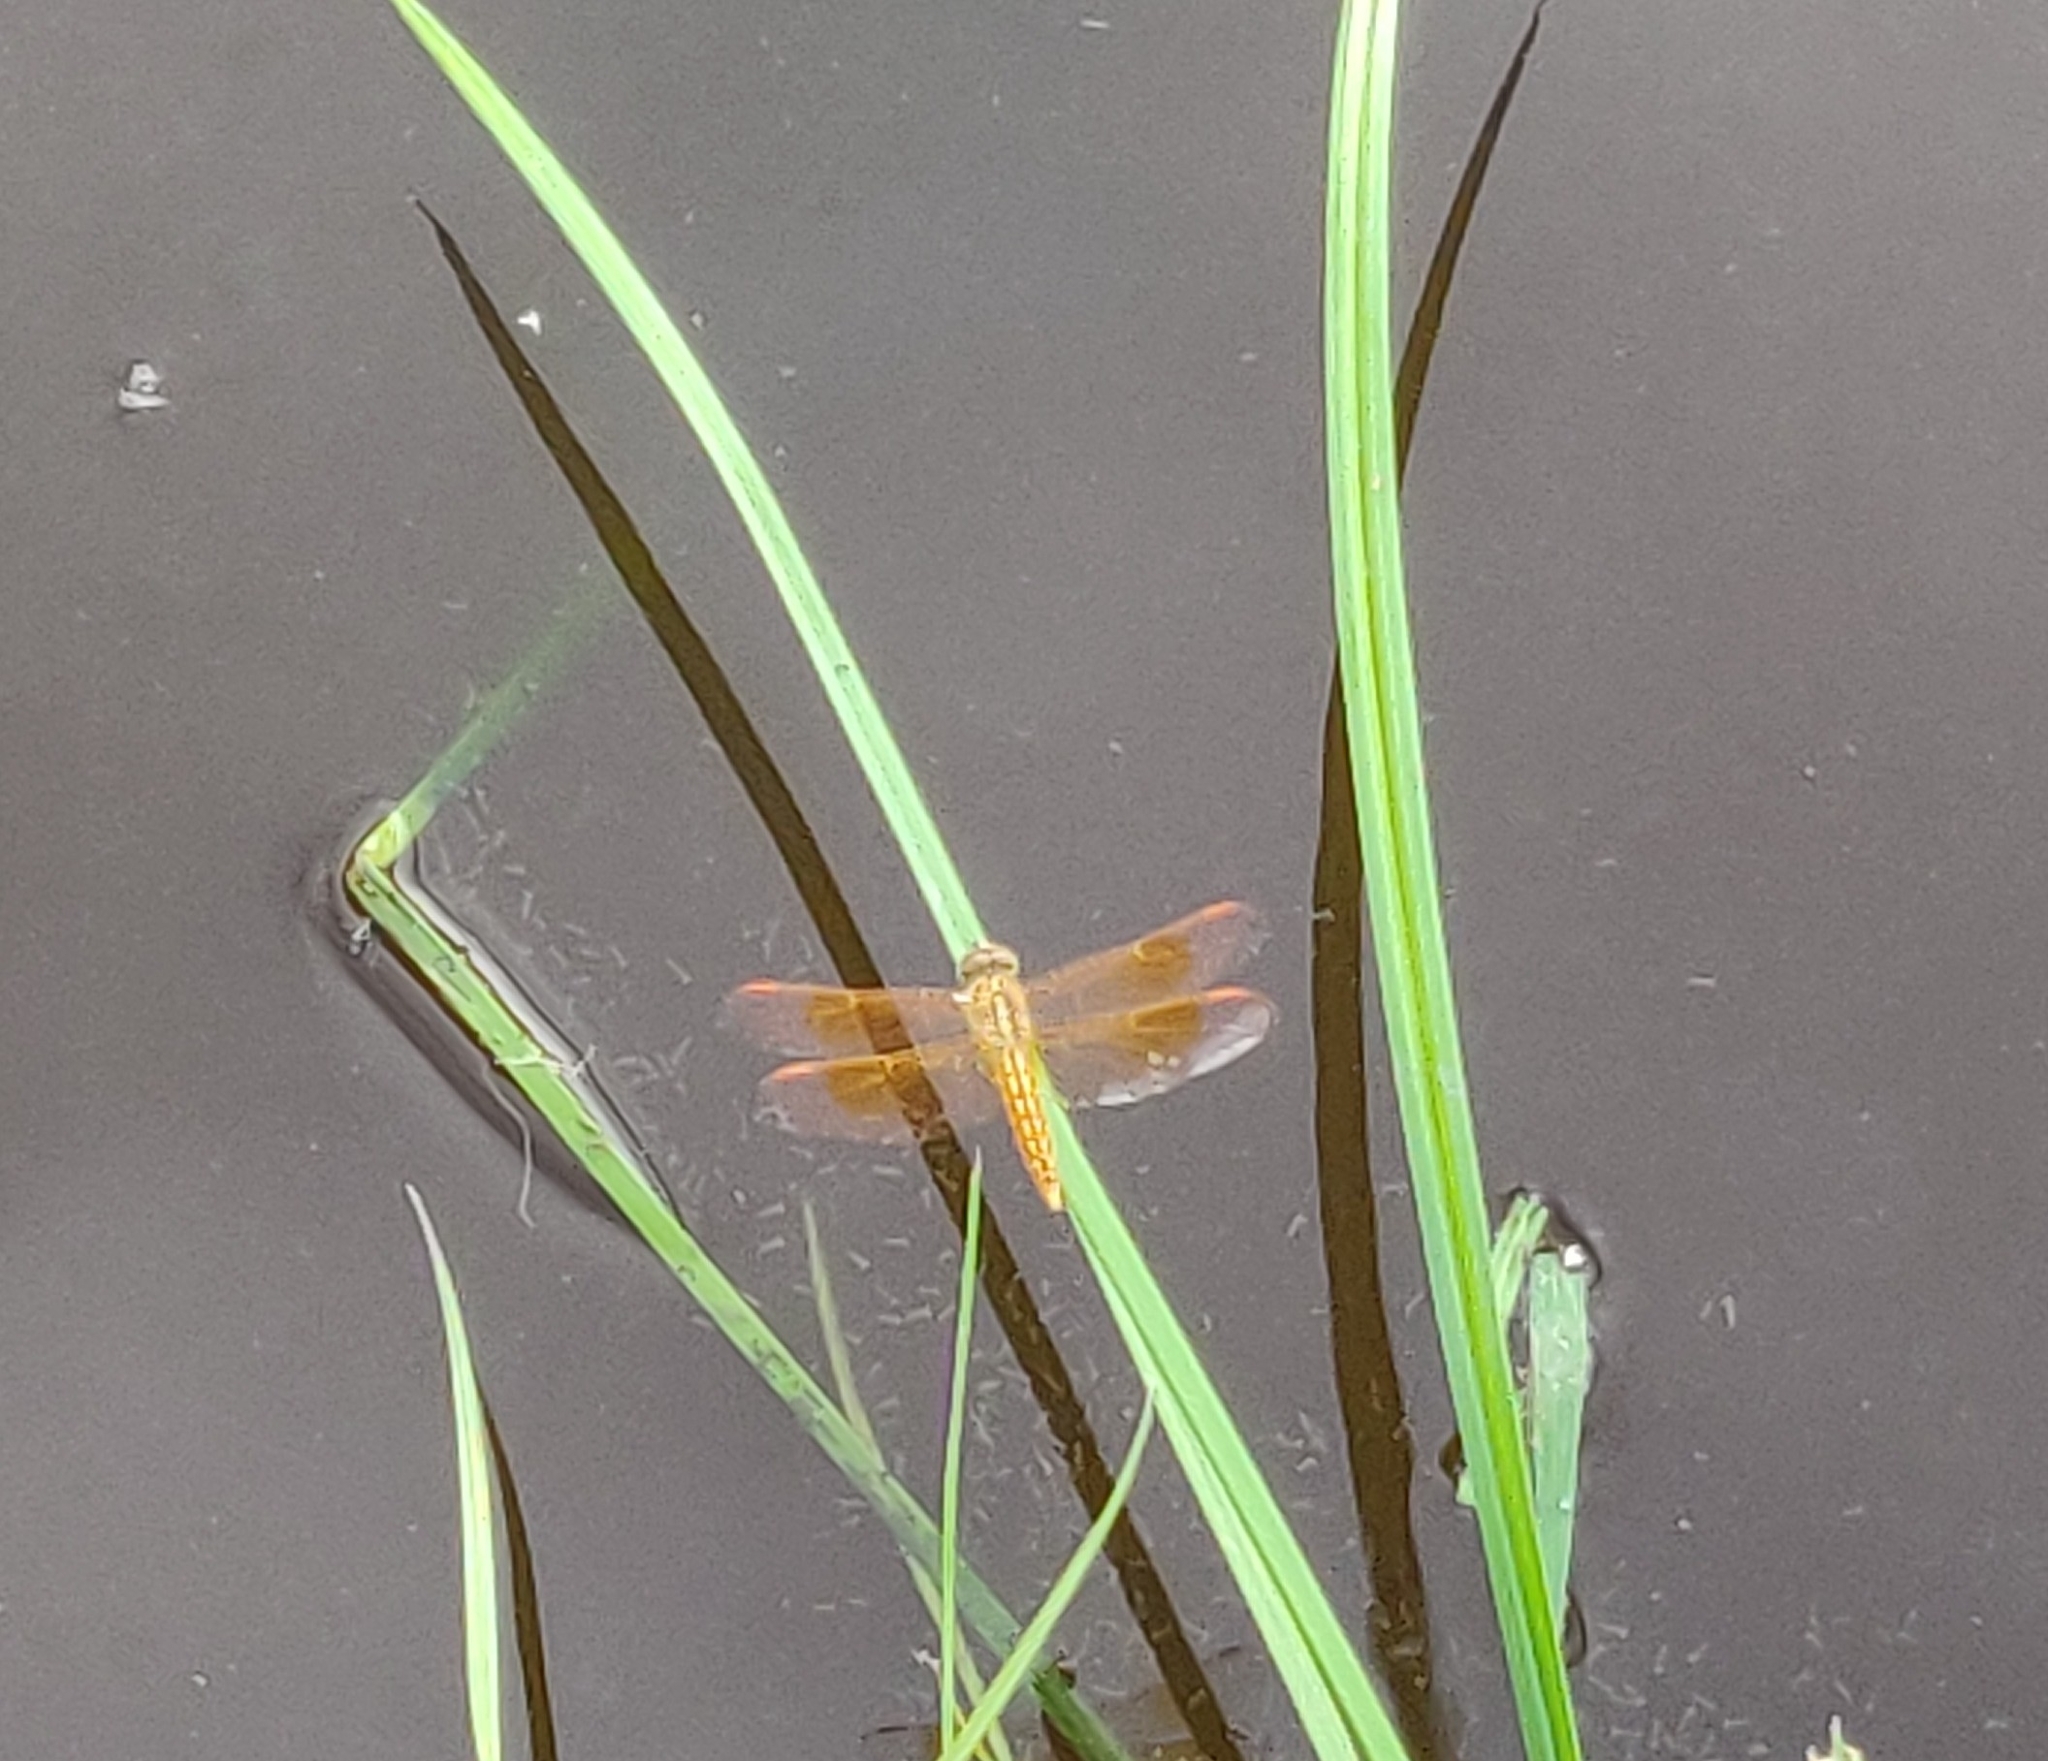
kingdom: Animalia
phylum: Arthropoda
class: Insecta
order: Odonata
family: Libellulidae
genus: Brachythemis
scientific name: Brachythemis contaminata
